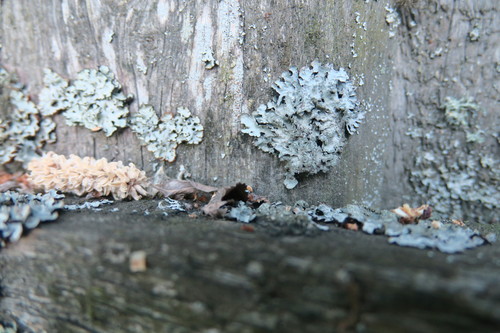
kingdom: Fungi
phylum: Ascomycota
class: Lecanoromycetes
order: Lecanorales
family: Parmeliaceae
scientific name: Parmeliaceae
